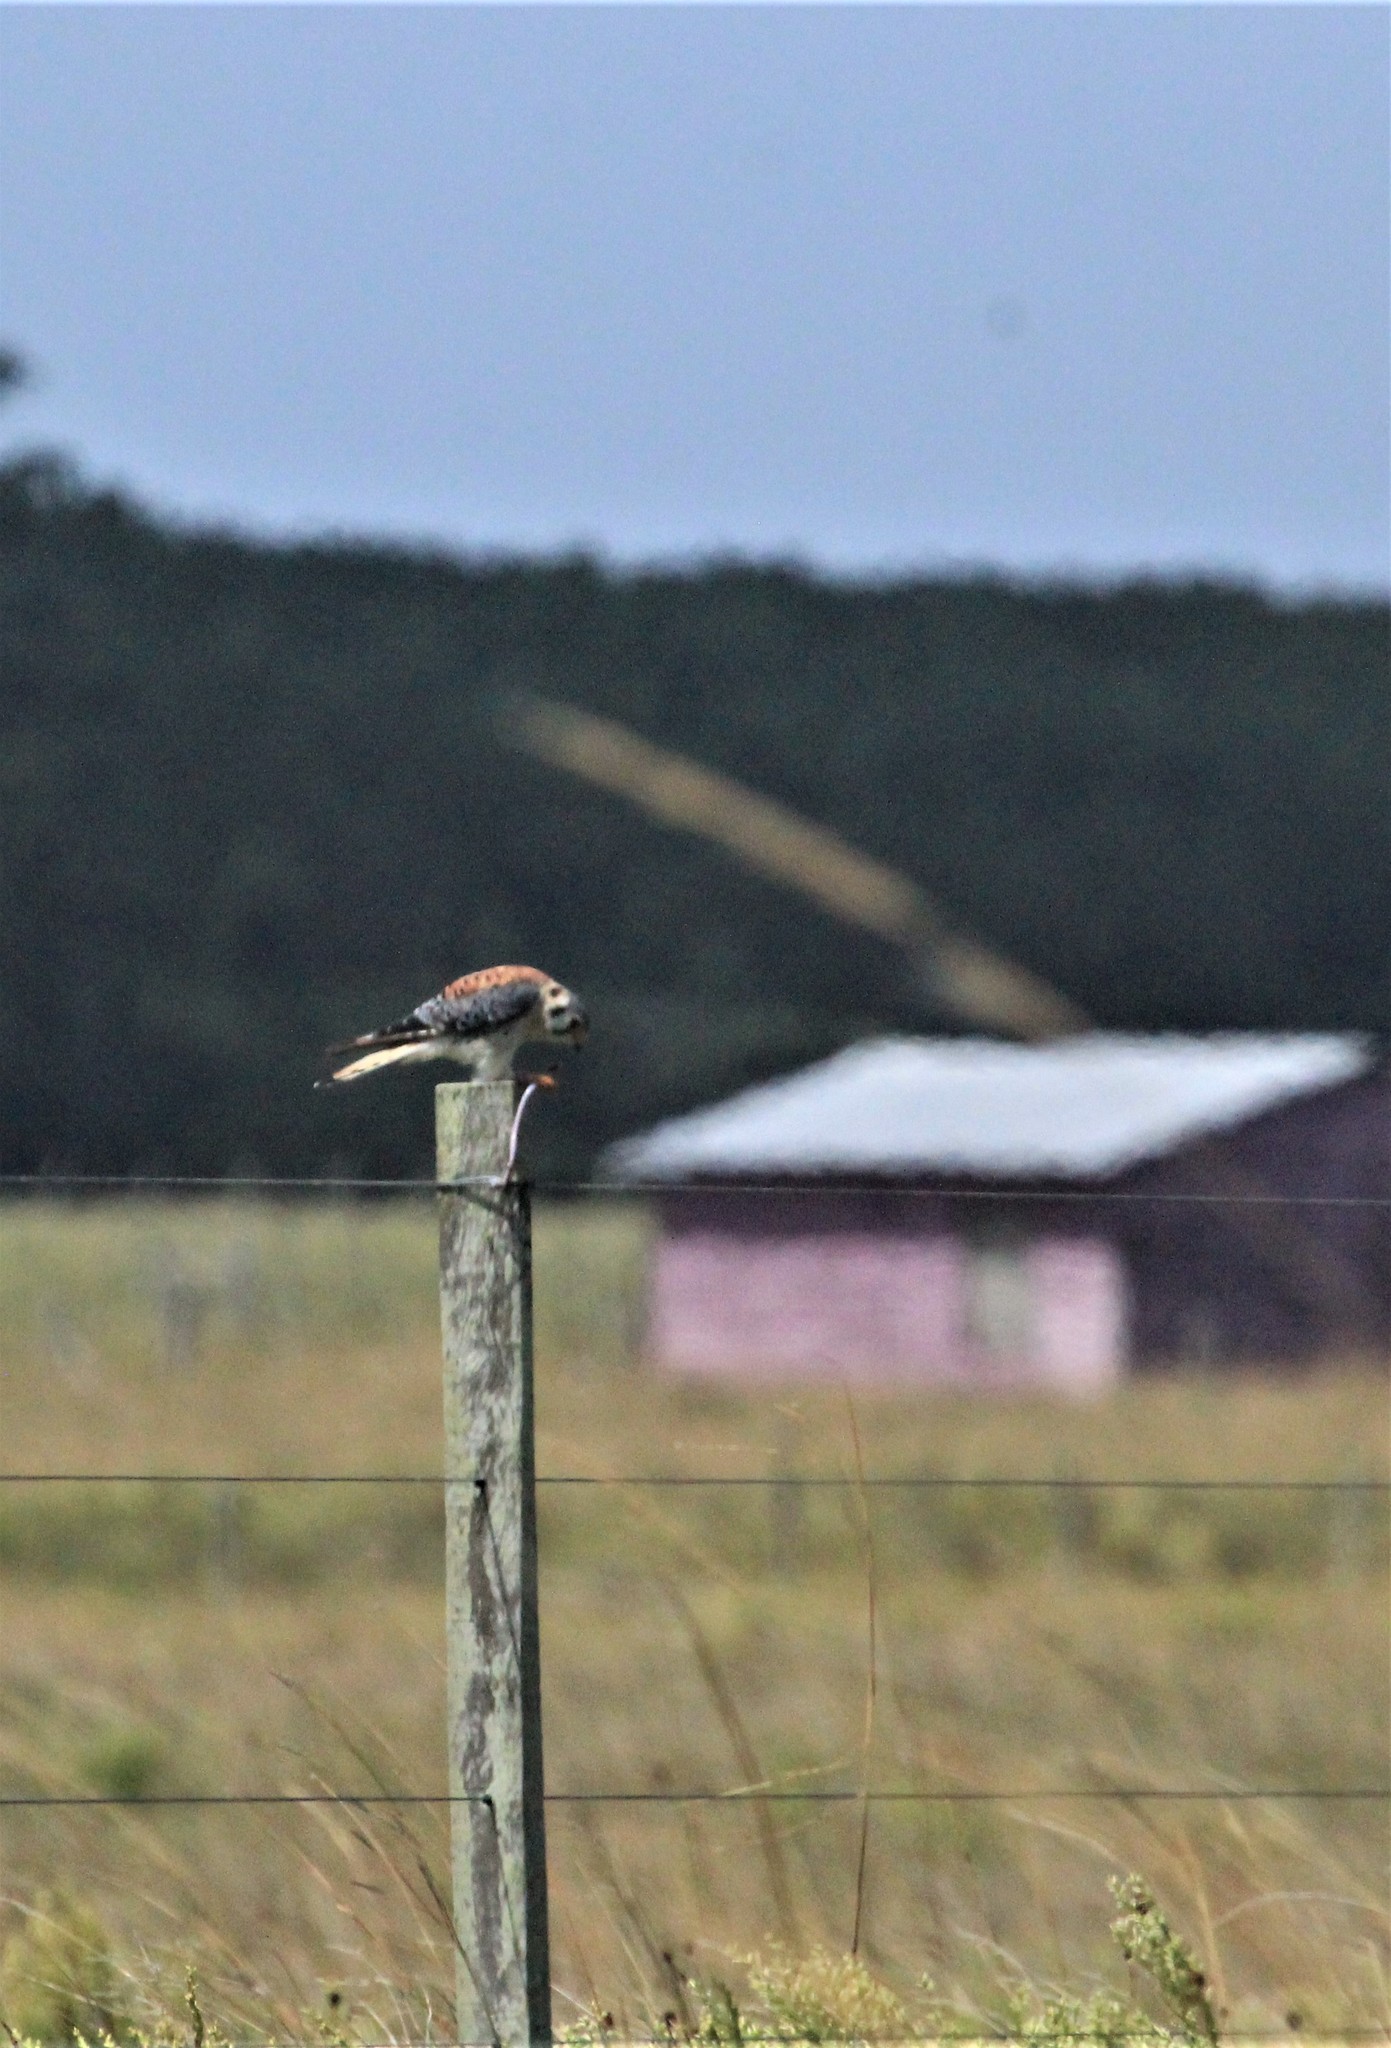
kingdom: Animalia
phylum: Chordata
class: Aves
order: Falconiformes
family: Falconidae
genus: Falco
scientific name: Falco sparverius
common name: American kestrel
